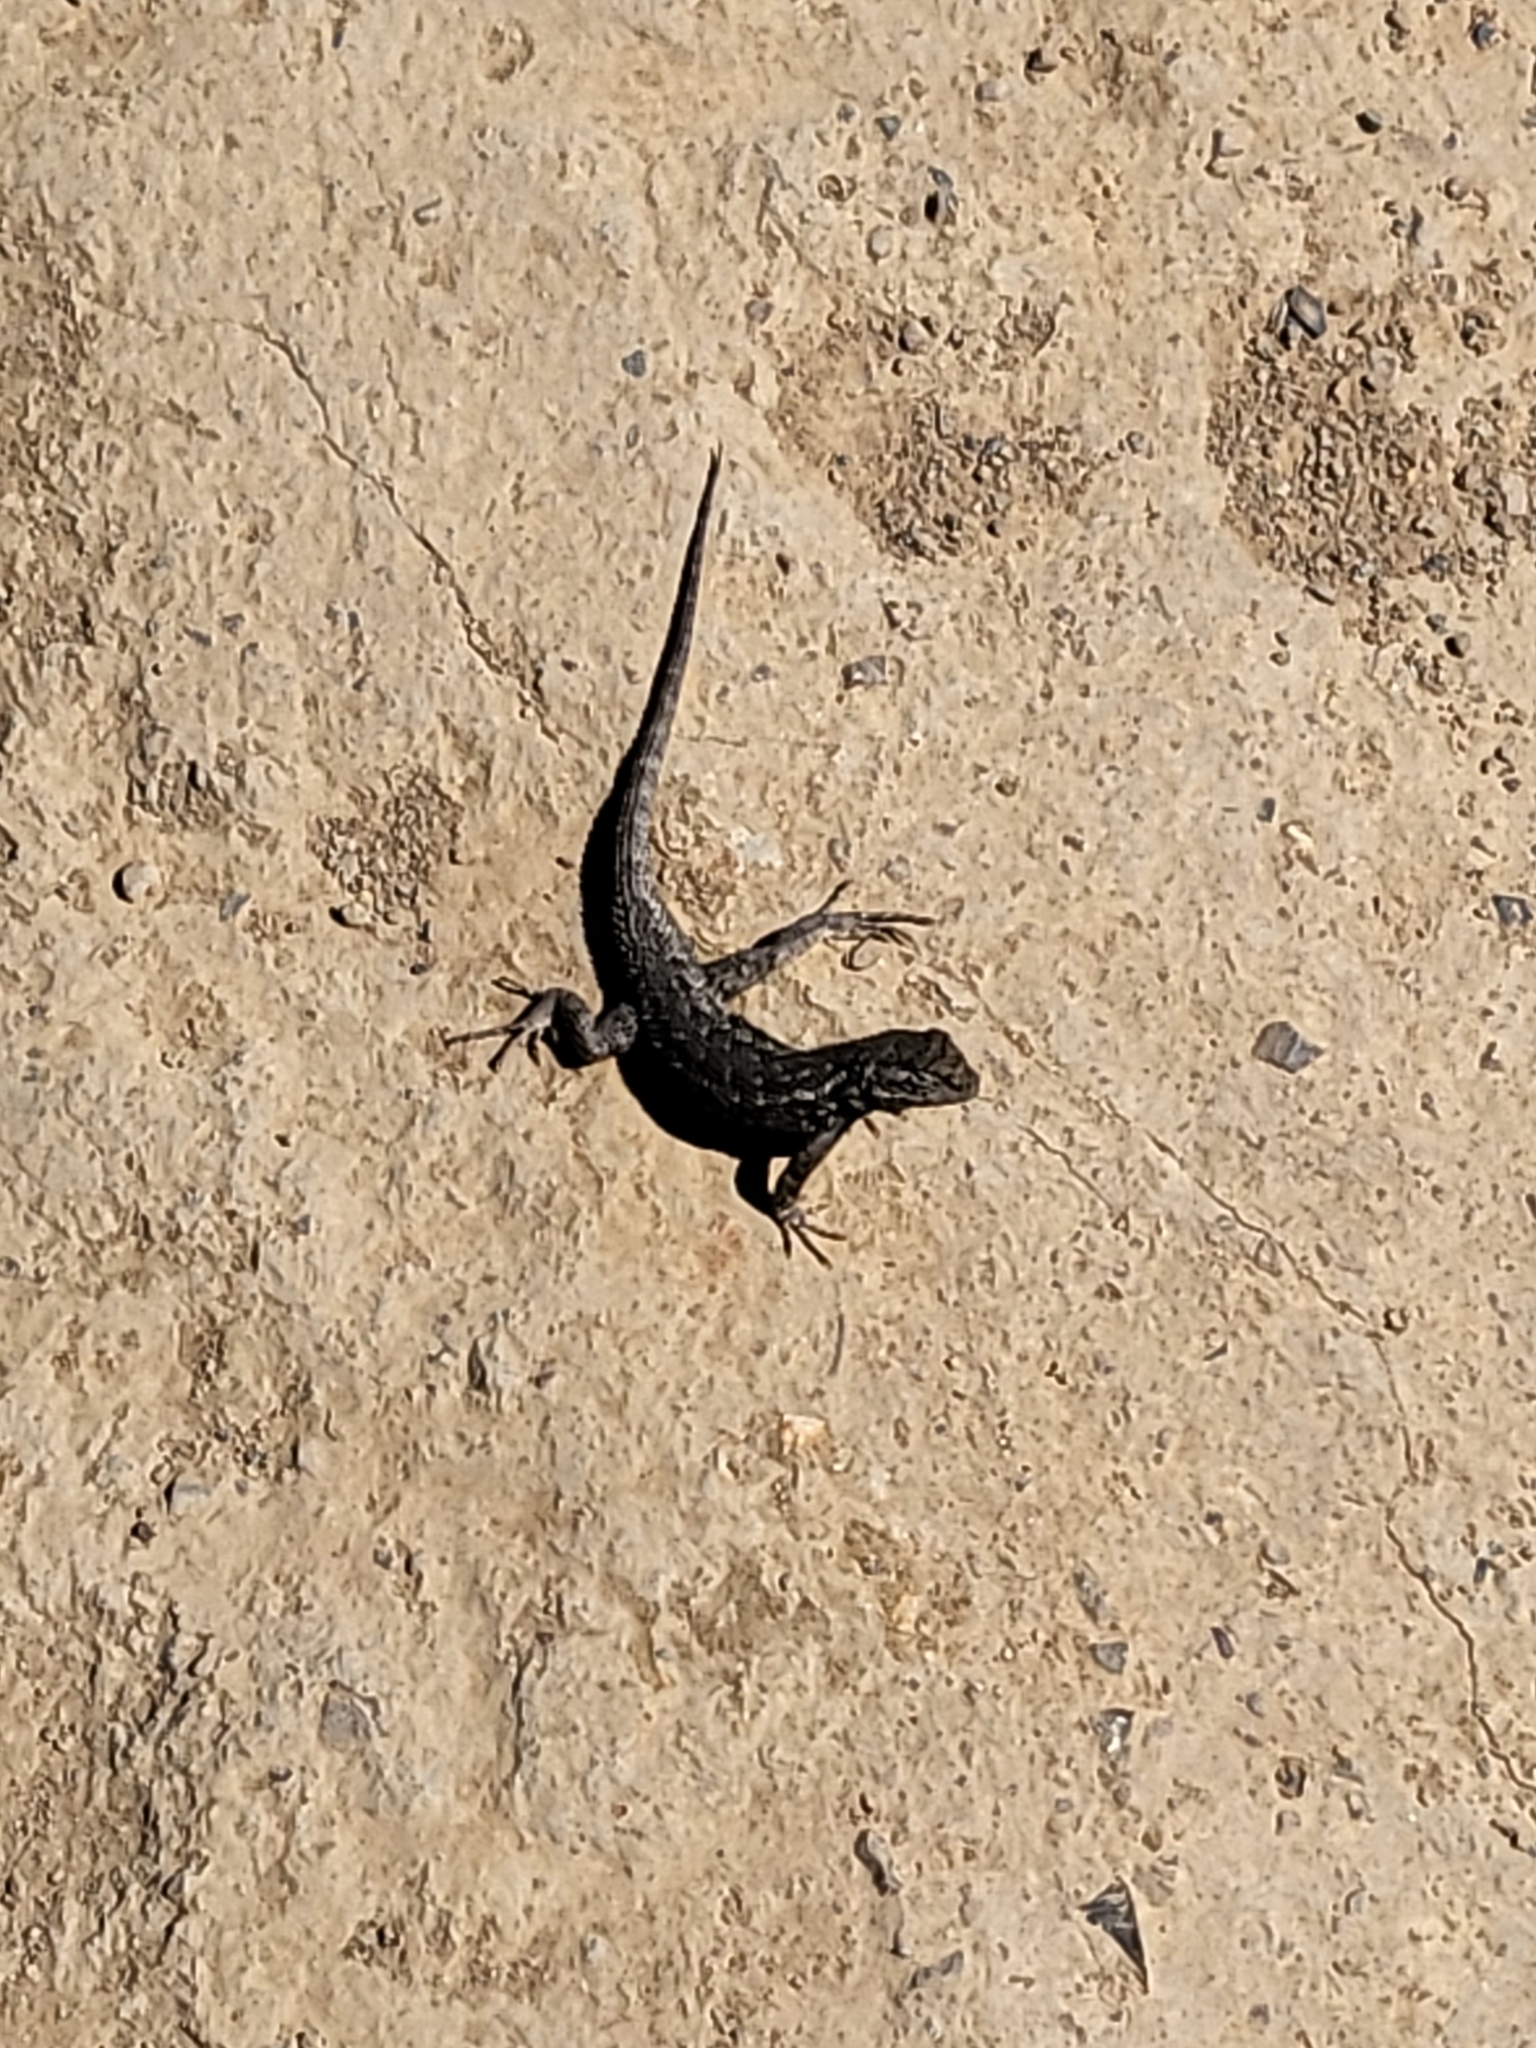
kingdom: Animalia
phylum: Chordata
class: Squamata
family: Phrynosomatidae
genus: Sceloporus
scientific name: Sceloporus occidentalis
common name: Western fence lizard
